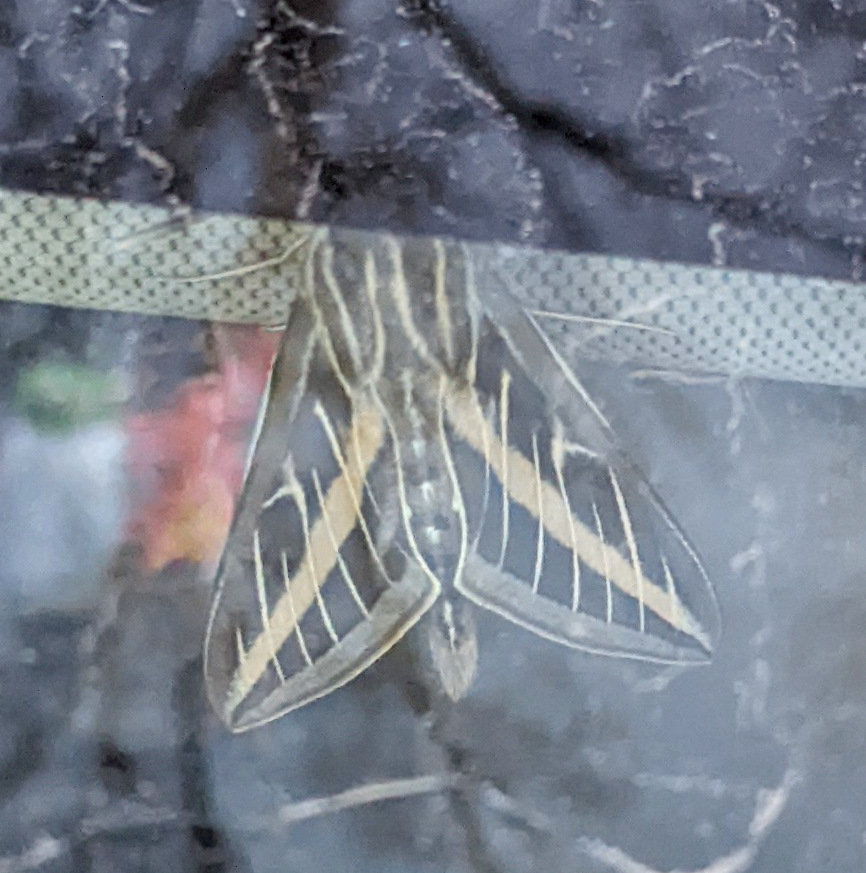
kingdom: Animalia
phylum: Arthropoda
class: Insecta
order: Lepidoptera
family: Sphingidae
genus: Hyles
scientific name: Hyles lineata
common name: White-lined sphinx
